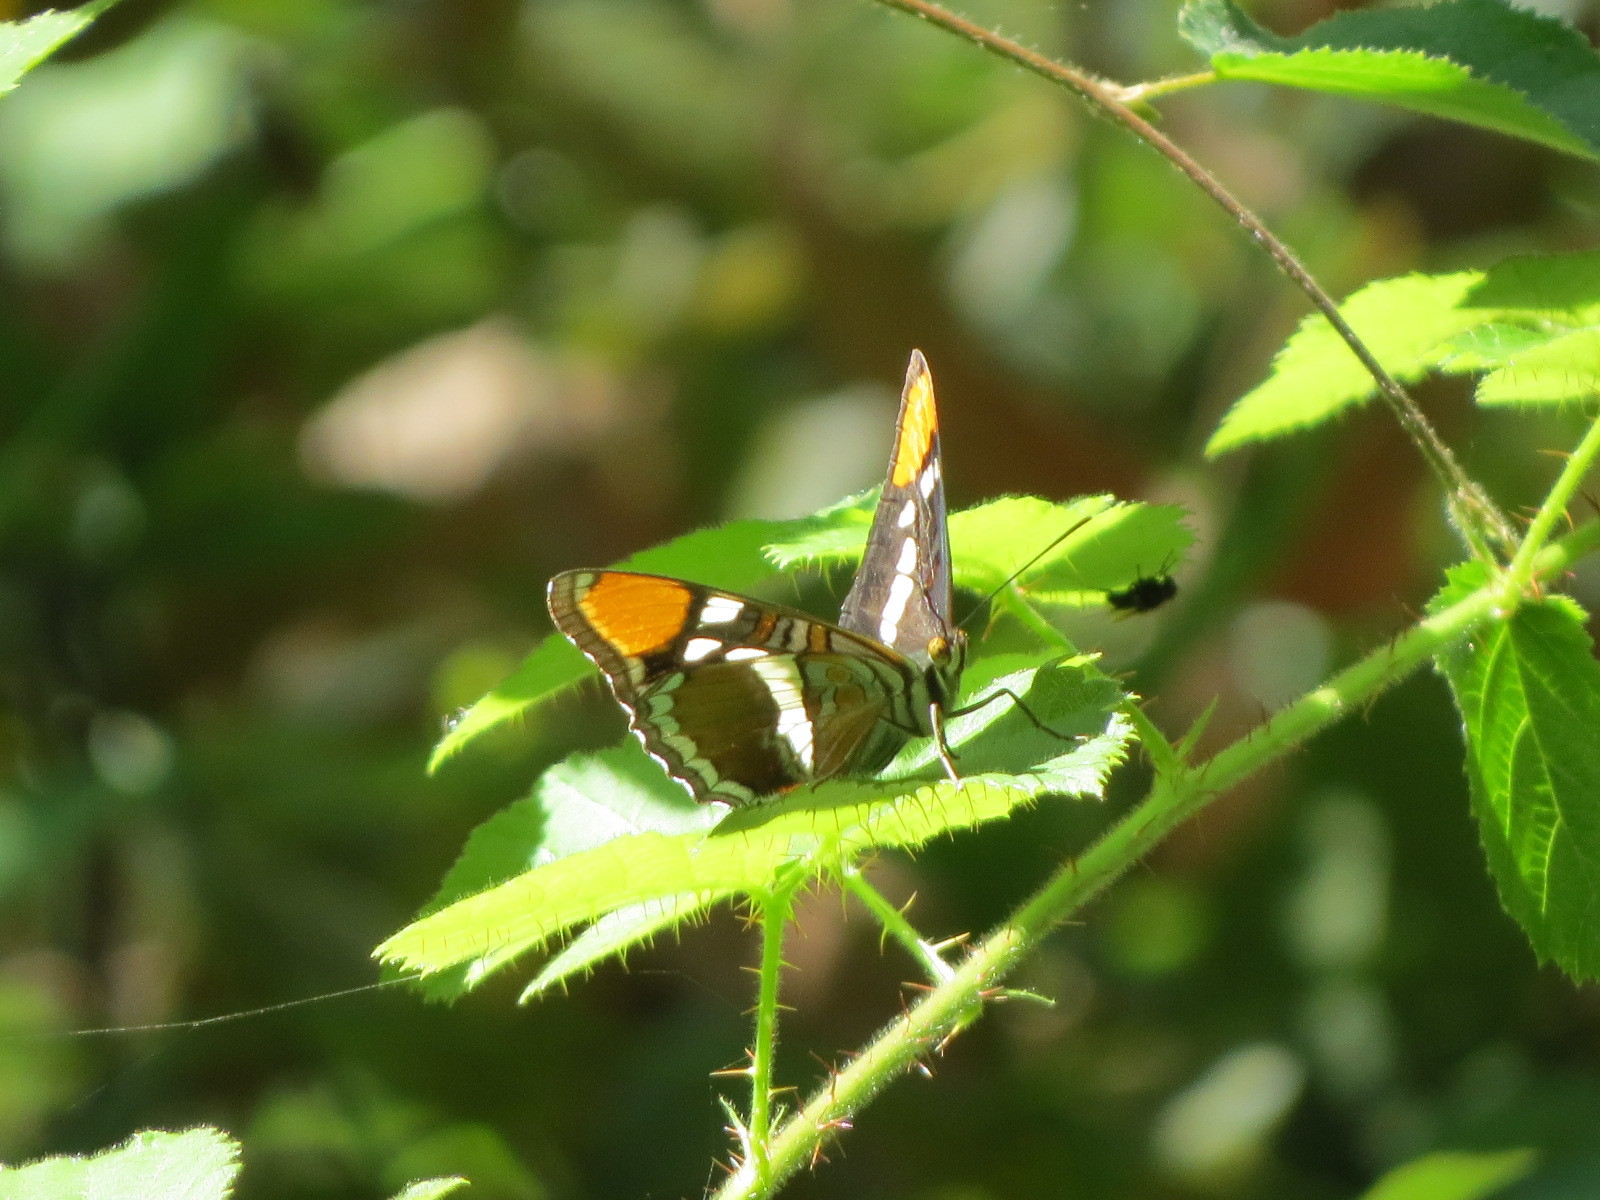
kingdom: Animalia
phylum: Arthropoda
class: Insecta
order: Lepidoptera
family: Nymphalidae
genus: Limenitis
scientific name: Limenitis bredowii
